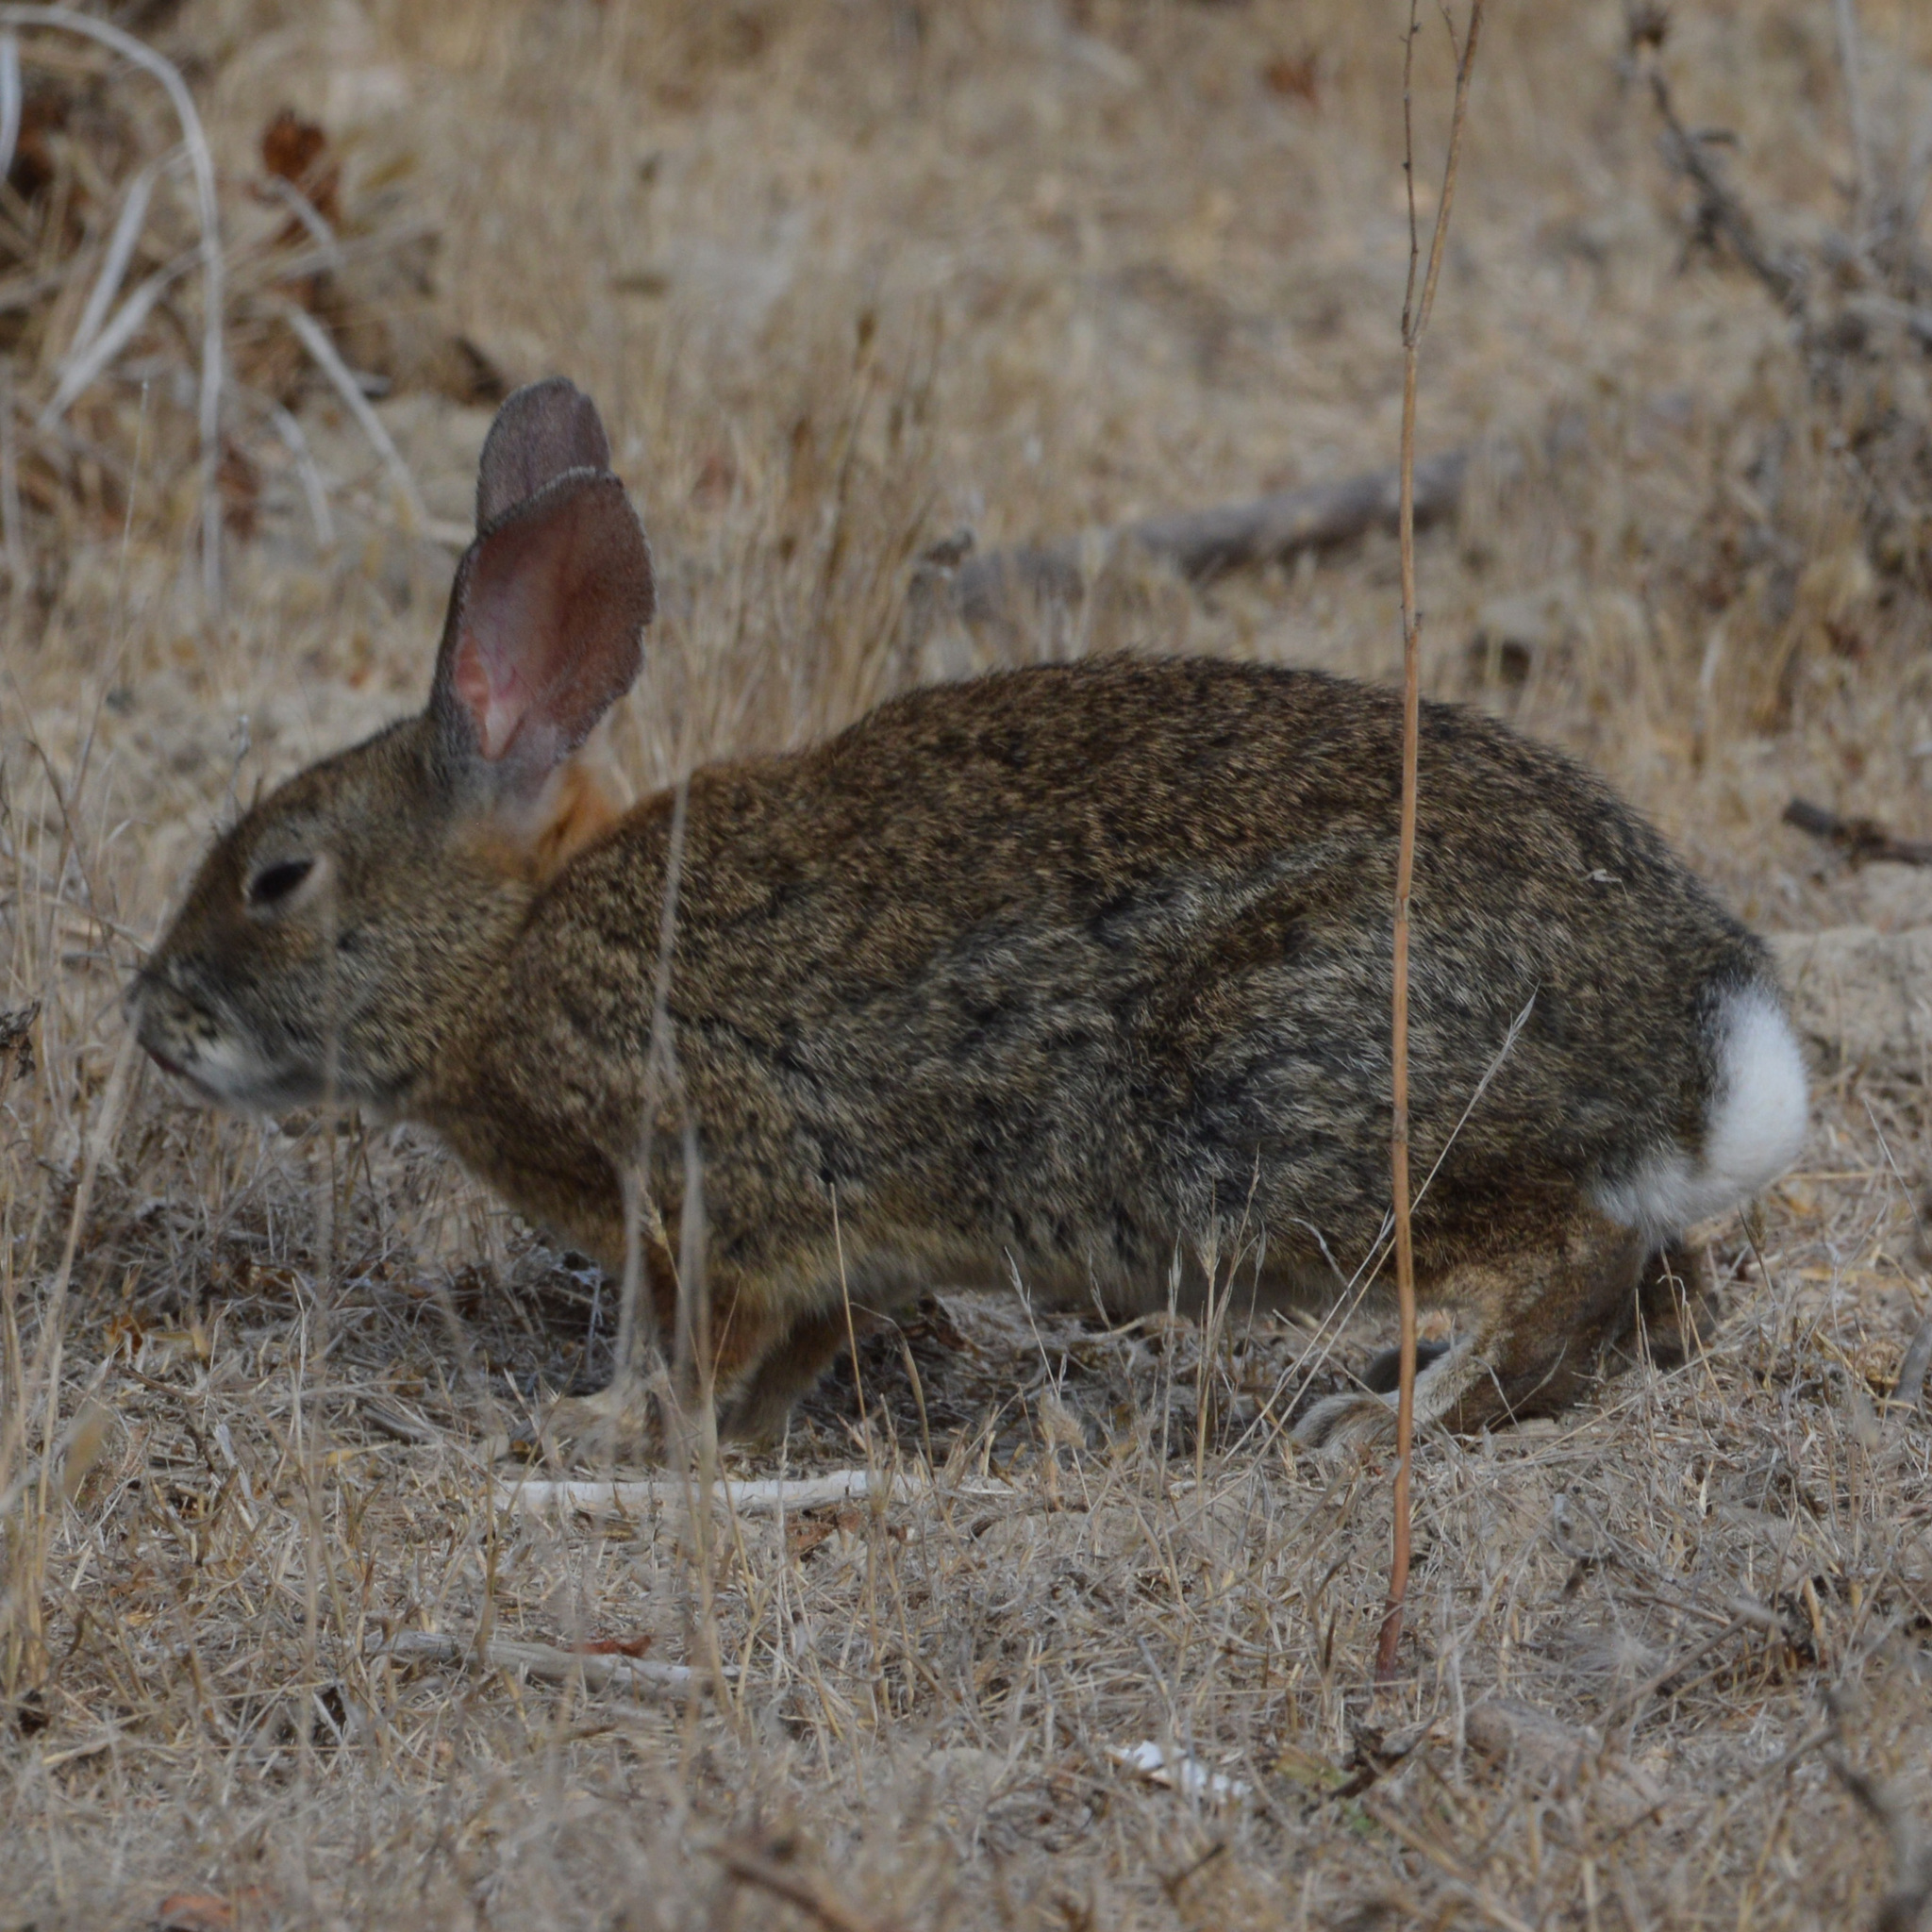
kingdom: Animalia
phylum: Chordata
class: Mammalia
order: Lagomorpha
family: Leporidae
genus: Sylvilagus
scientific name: Sylvilagus bachmani
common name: Brush rabbit
